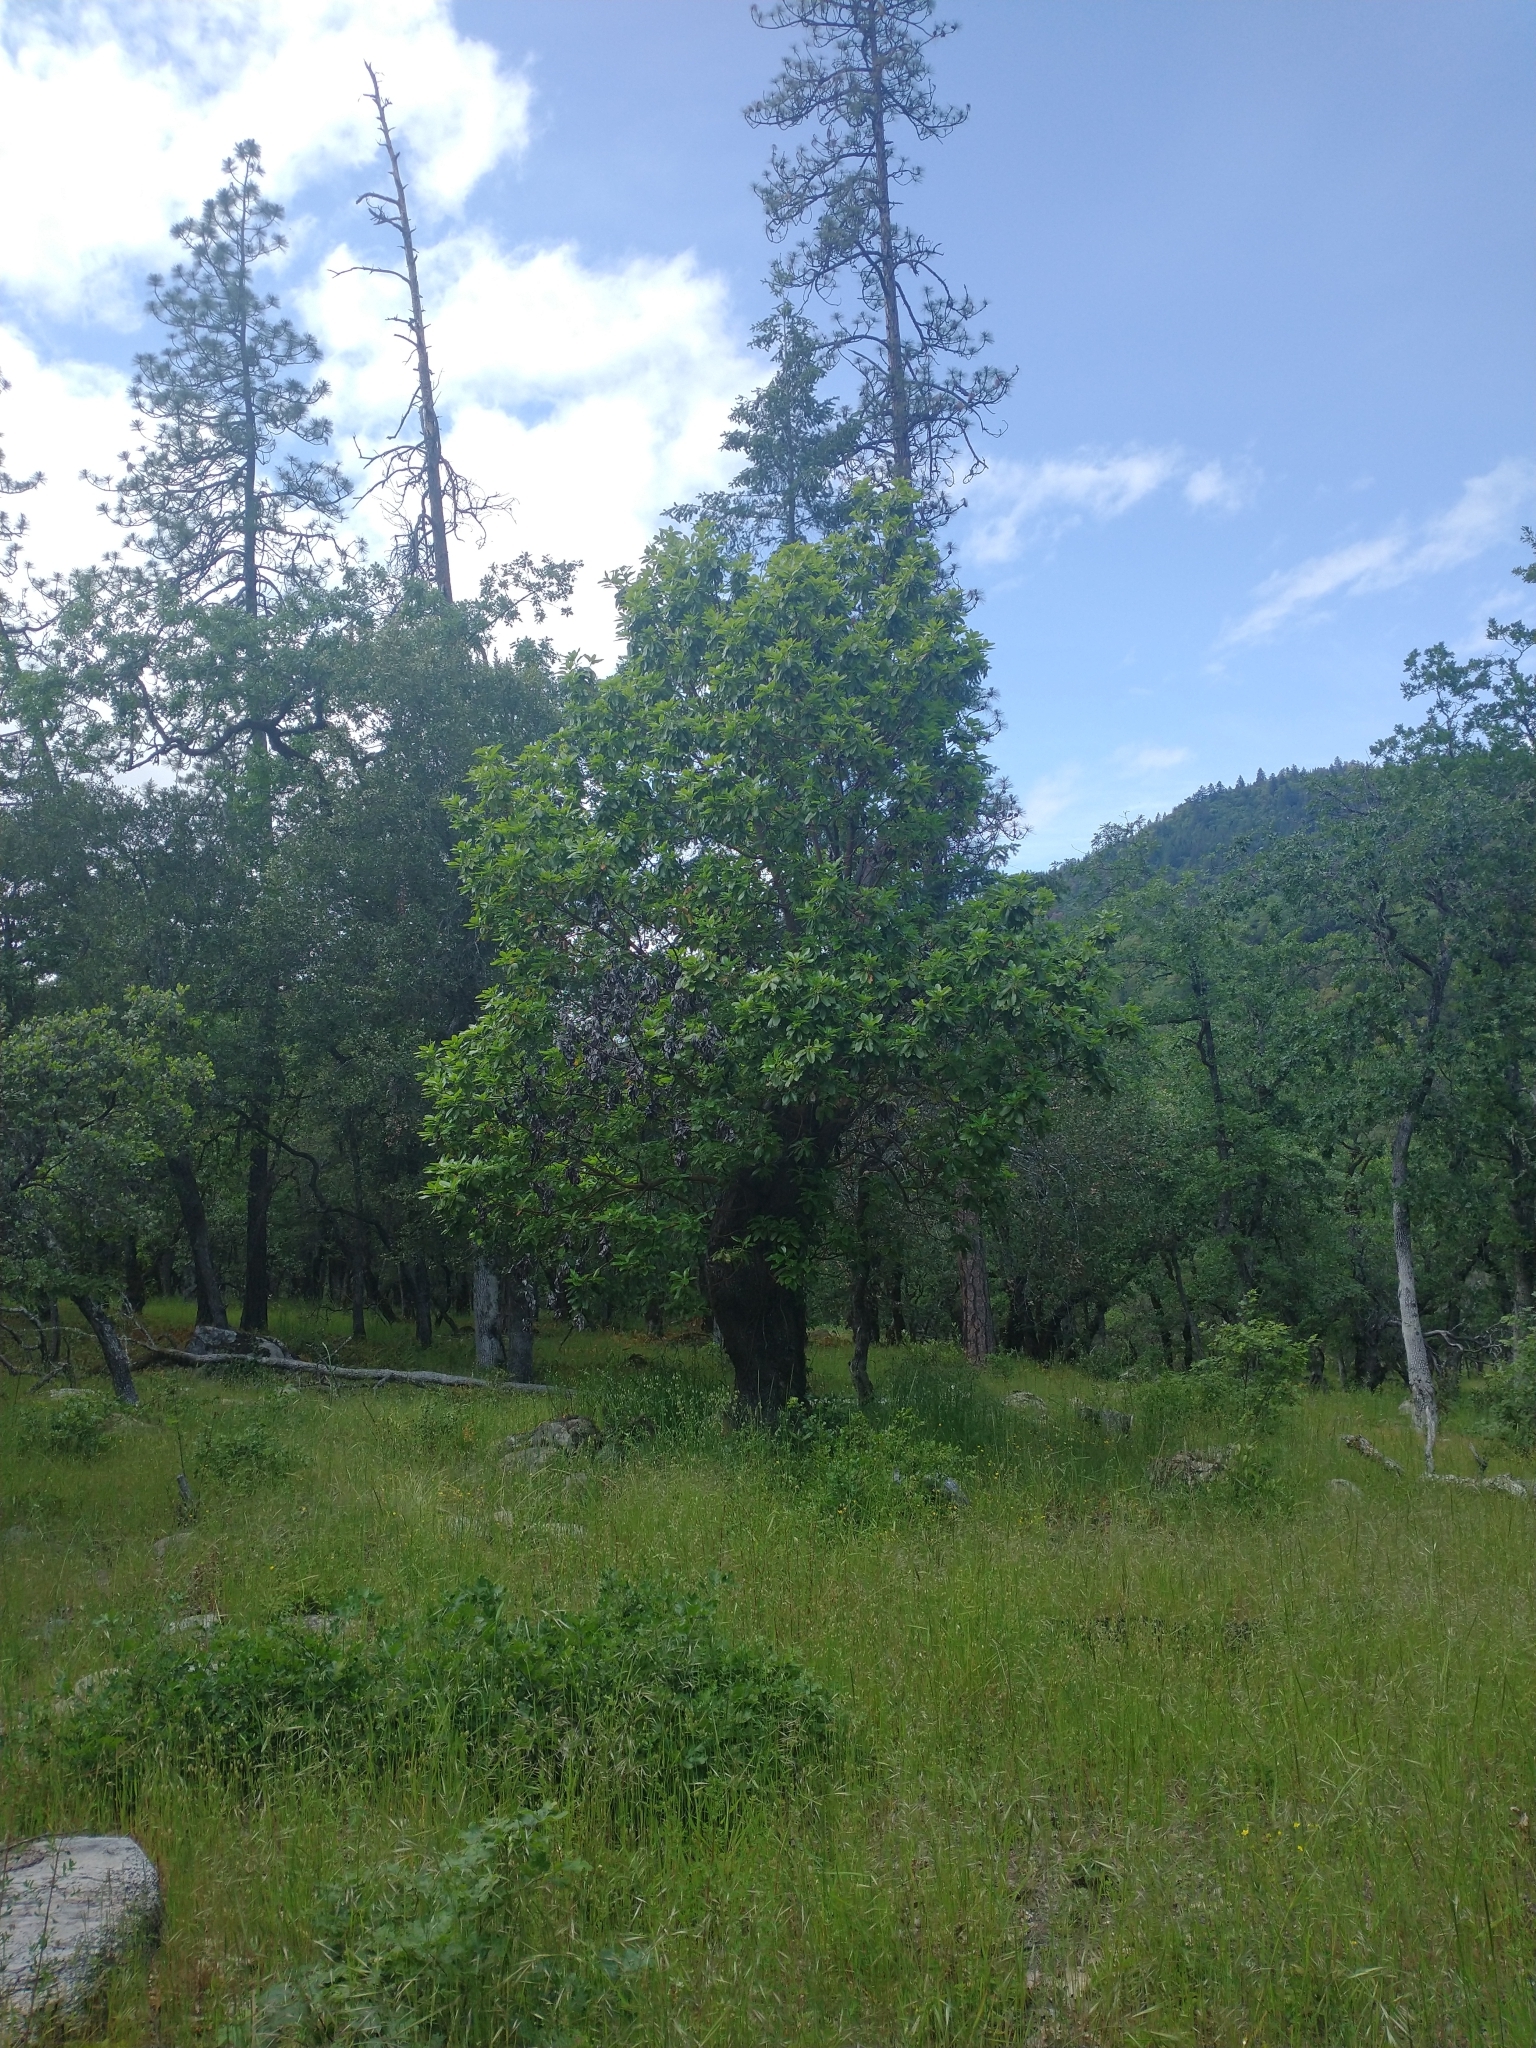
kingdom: Plantae
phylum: Tracheophyta
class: Magnoliopsida
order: Ericales
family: Ericaceae
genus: Arbutus
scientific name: Arbutus menziesii
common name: Pacific madrone
